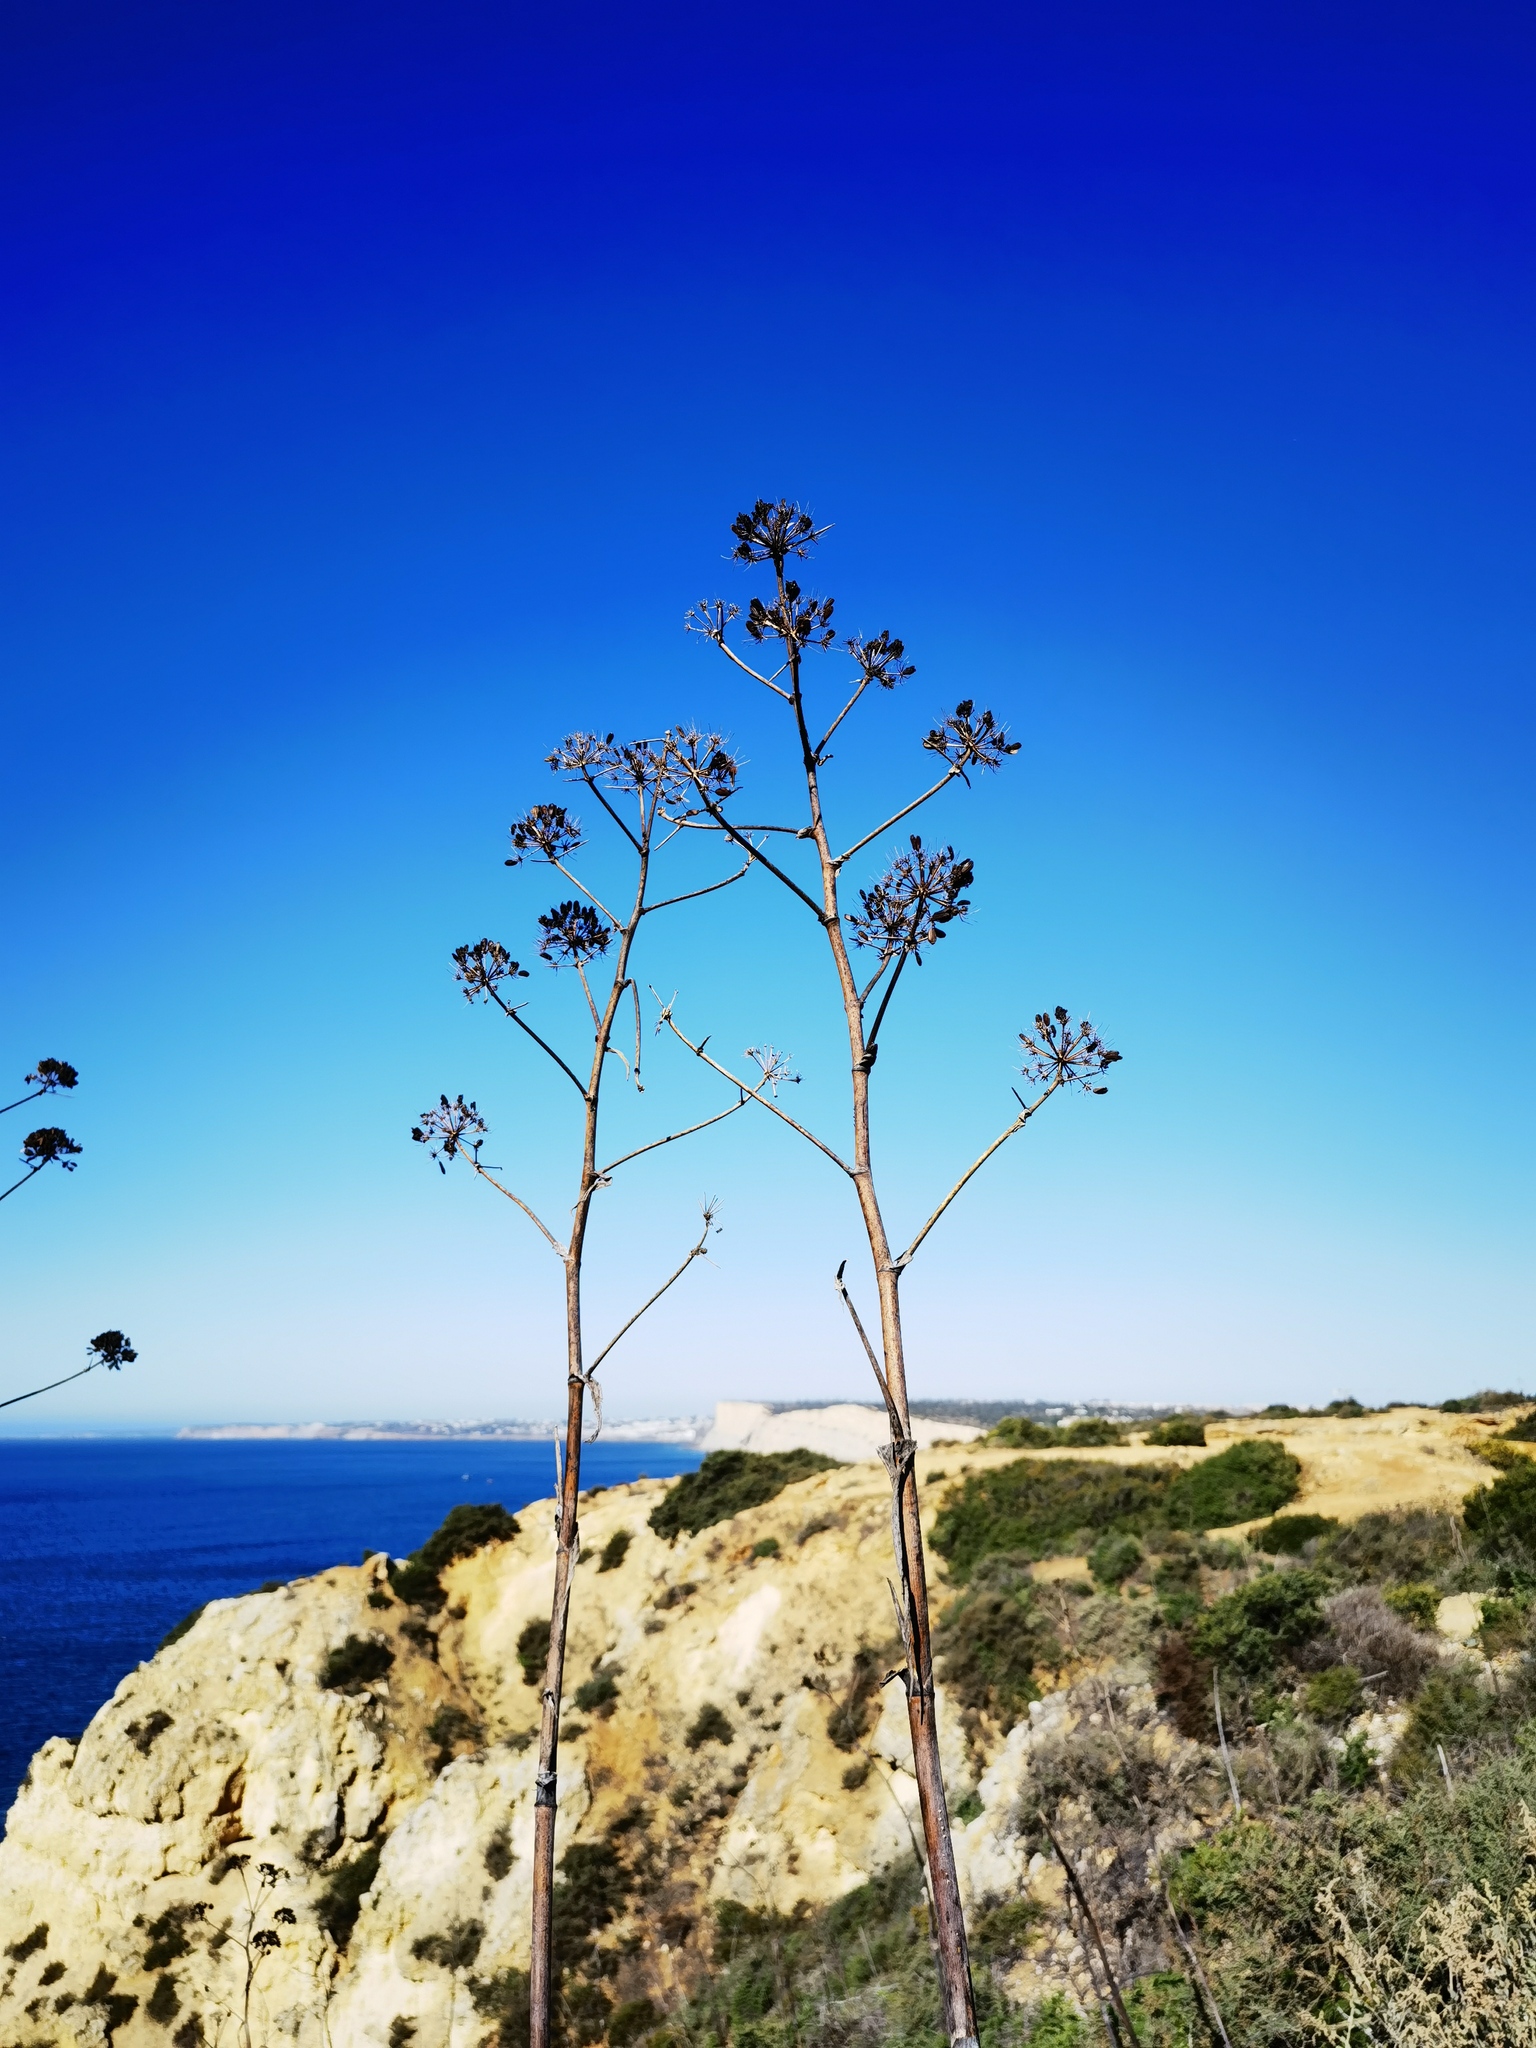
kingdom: Plantae
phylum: Tracheophyta
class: Liliopsida
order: Asparagales
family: Asparagaceae
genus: Agave
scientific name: Agave americana
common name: Centuryplant
